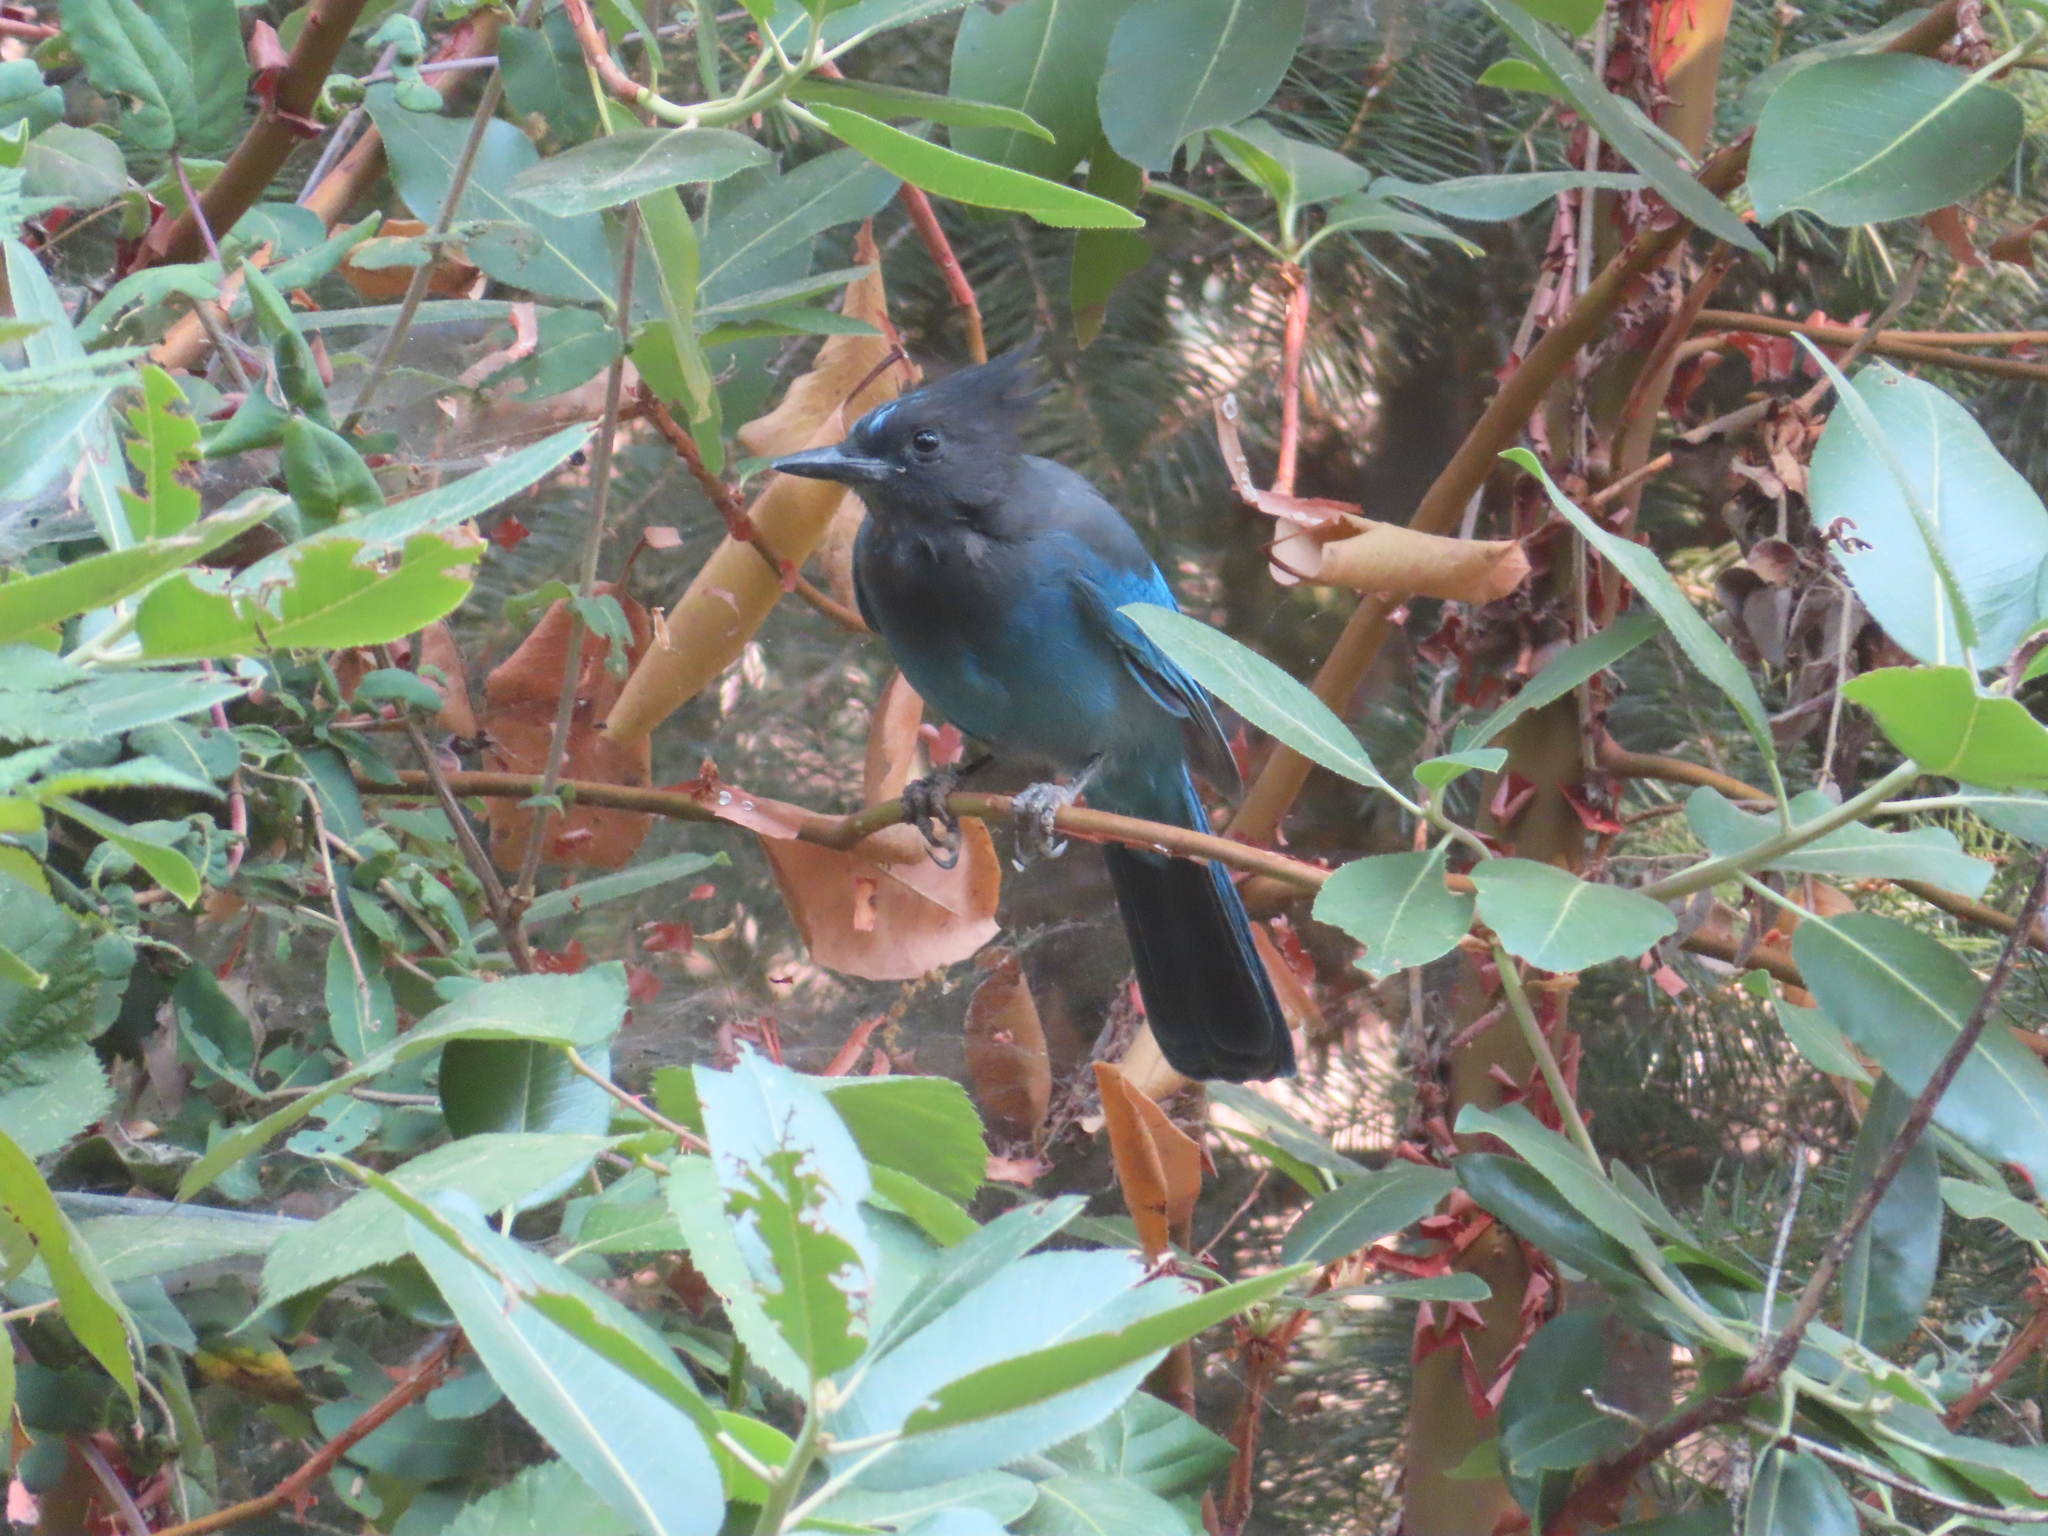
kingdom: Animalia
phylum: Chordata
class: Aves
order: Passeriformes
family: Corvidae
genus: Cyanocitta
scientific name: Cyanocitta stelleri
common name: Steller's jay
